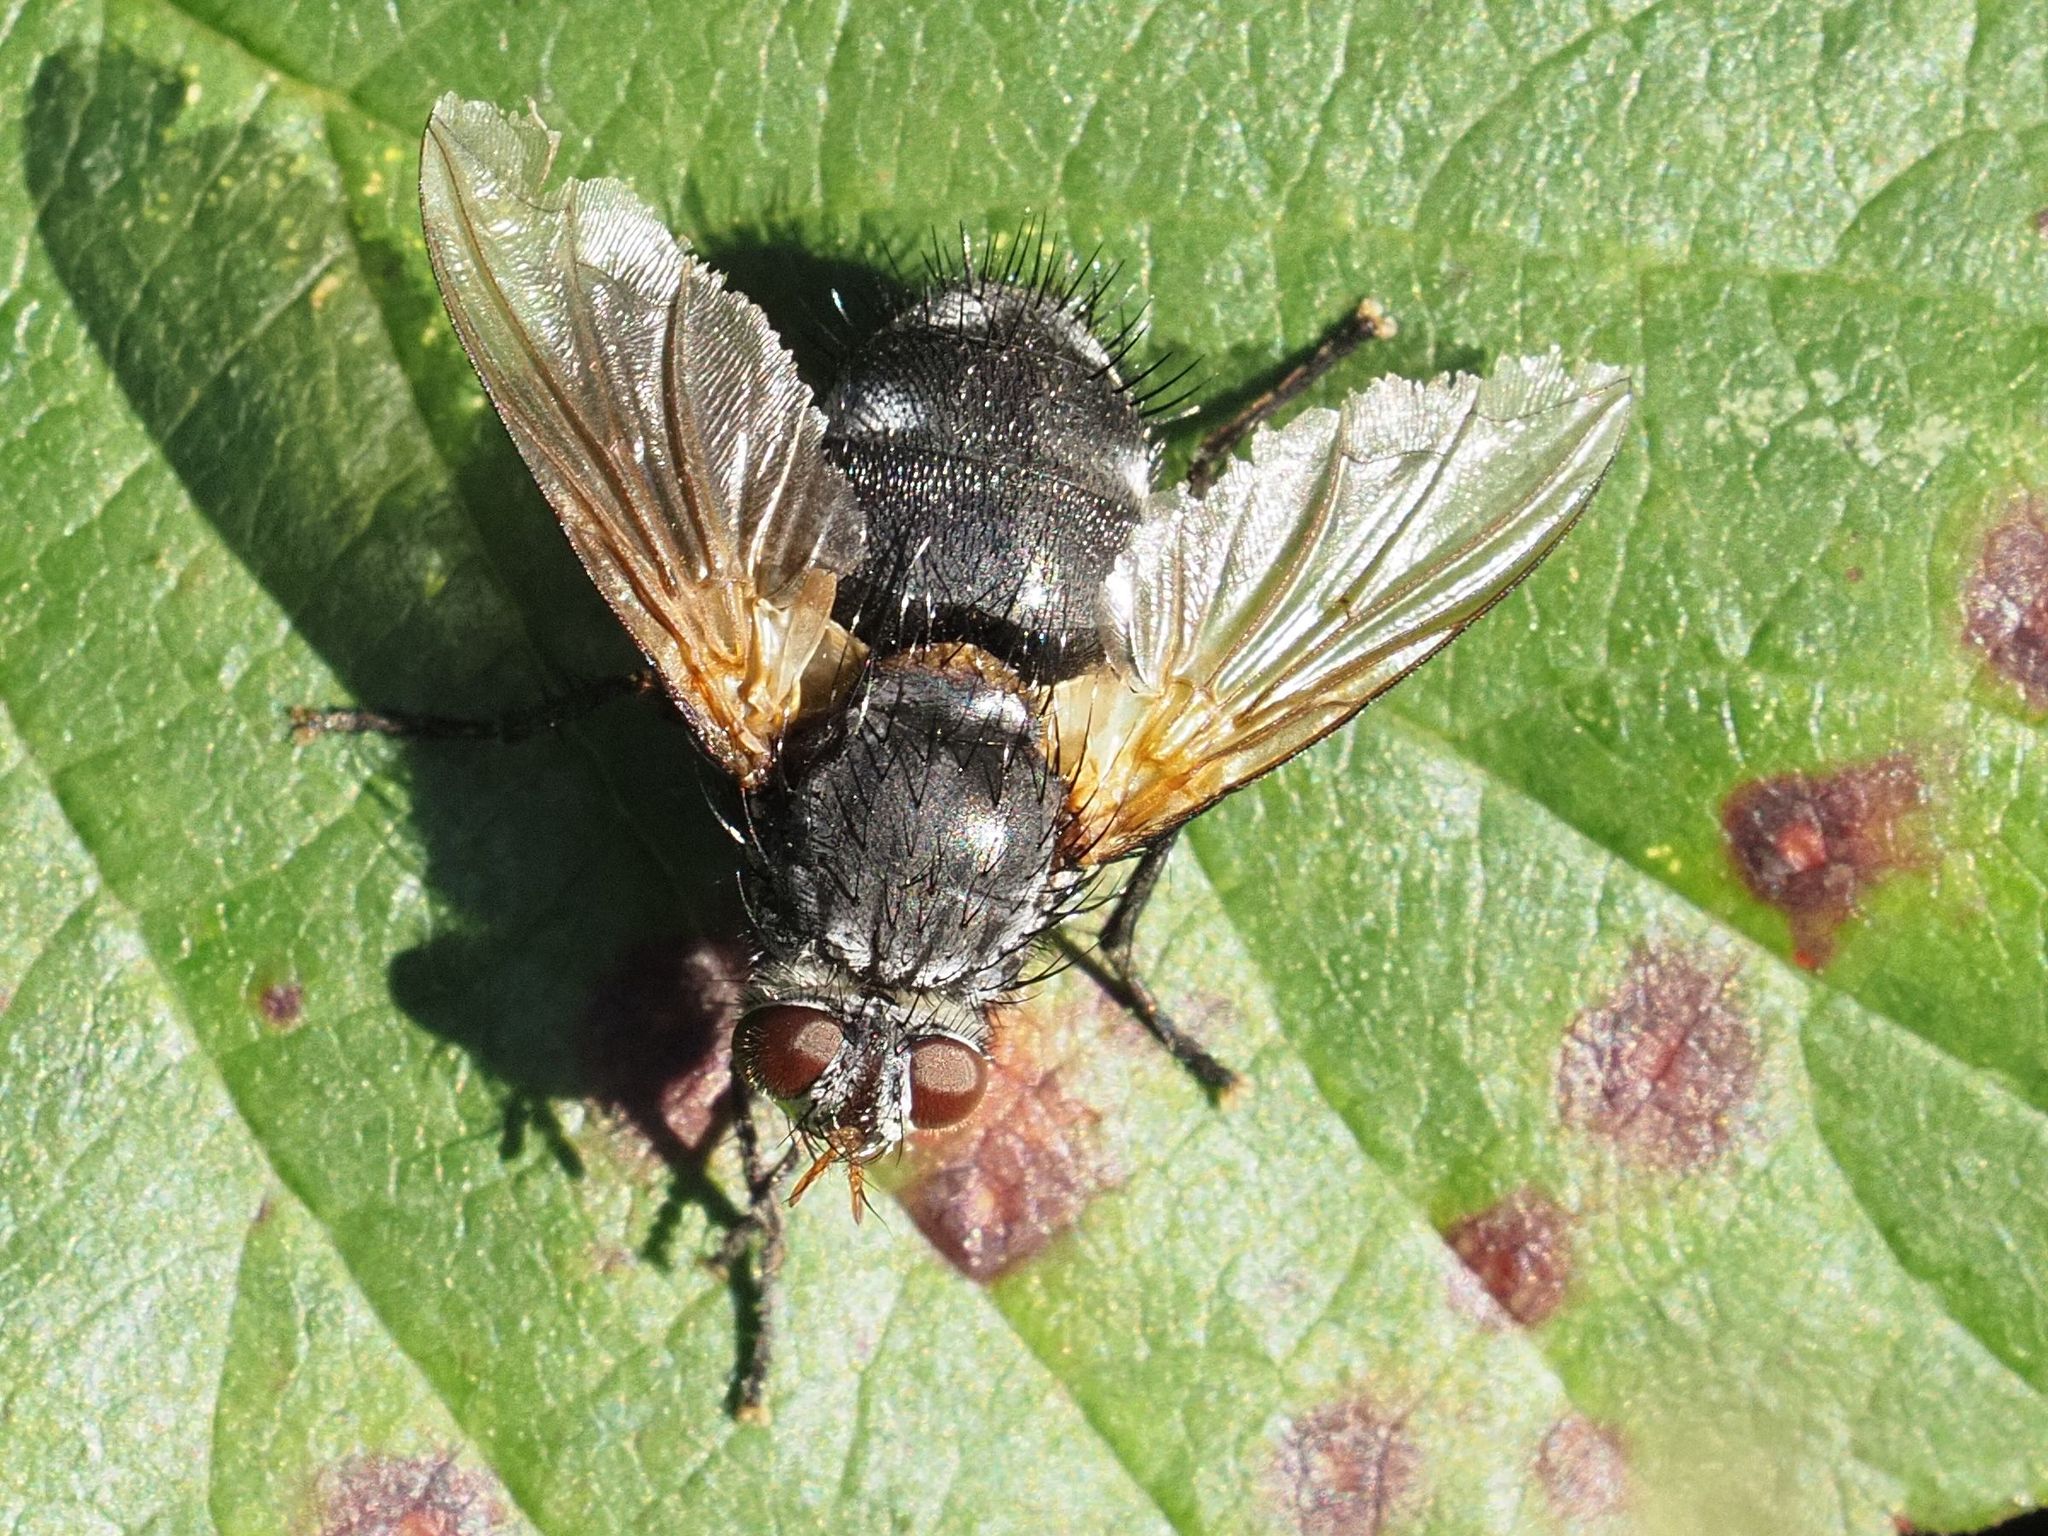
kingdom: Animalia
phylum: Arthropoda
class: Insecta
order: Diptera
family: Tachinidae
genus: Nemoraea
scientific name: Nemoraea pellucida
